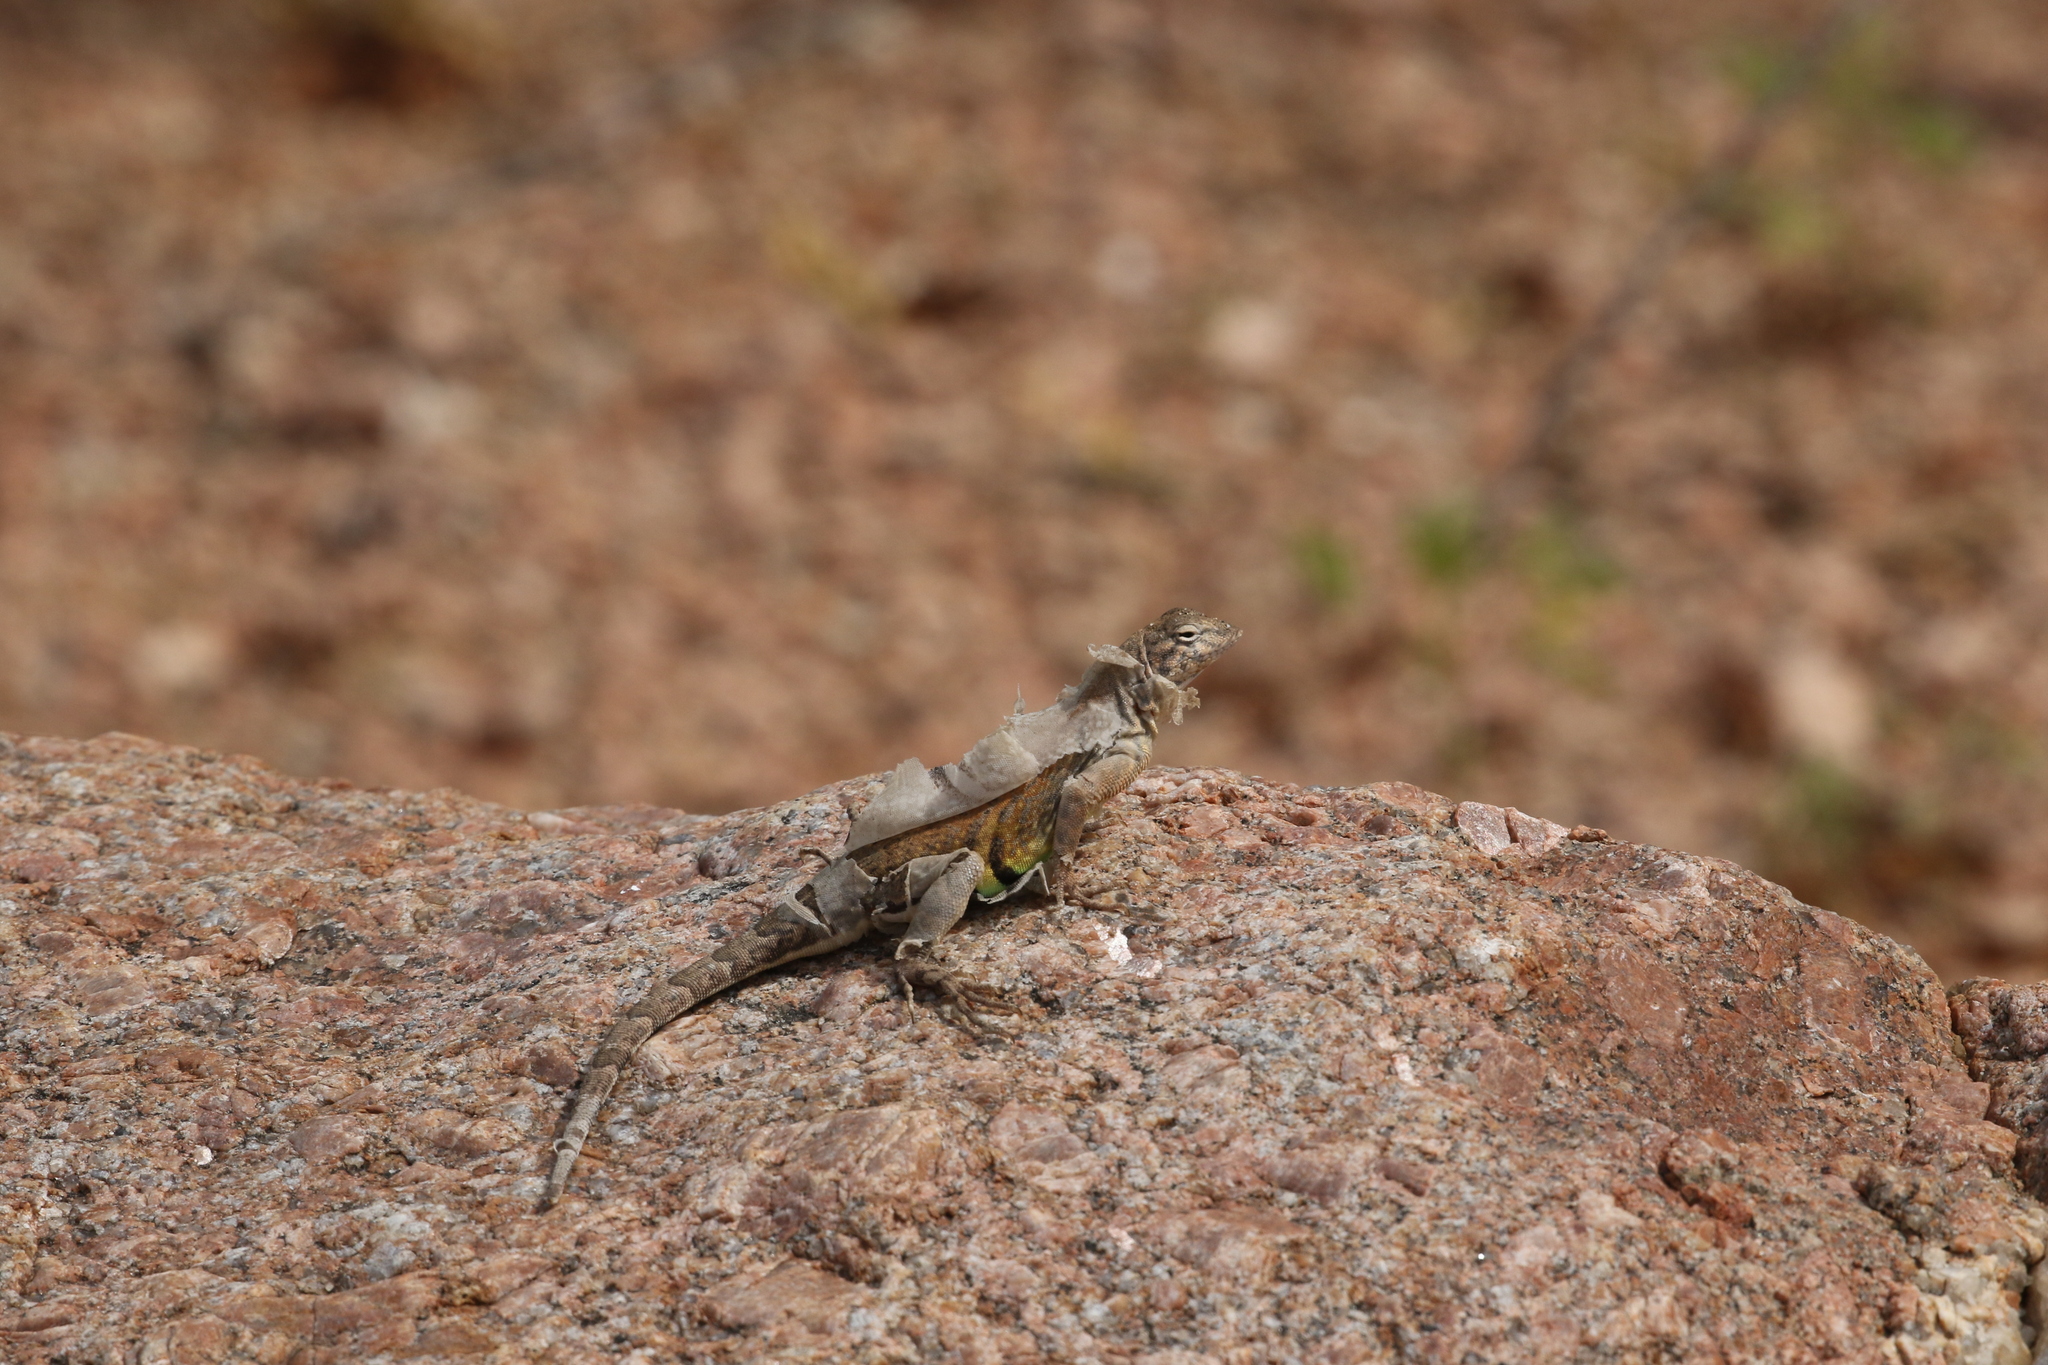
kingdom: Animalia
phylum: Chordata
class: Squamata
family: Phrynosomatidae
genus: Cophosaurus
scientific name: Cophosaurus texanus
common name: Greater earless lizard
